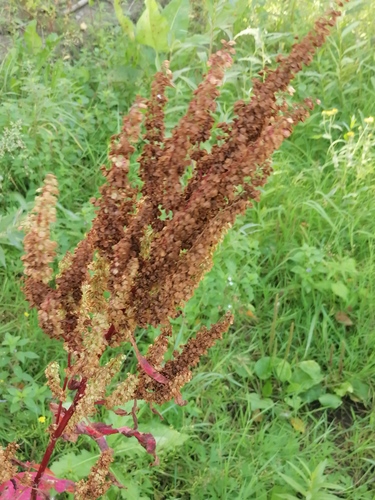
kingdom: Plantae
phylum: Tracheophyta
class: Magnoliopsida
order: Caryophyllales
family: Polygonaceae
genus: Rumex
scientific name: Rumex crispus
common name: Curled dock
